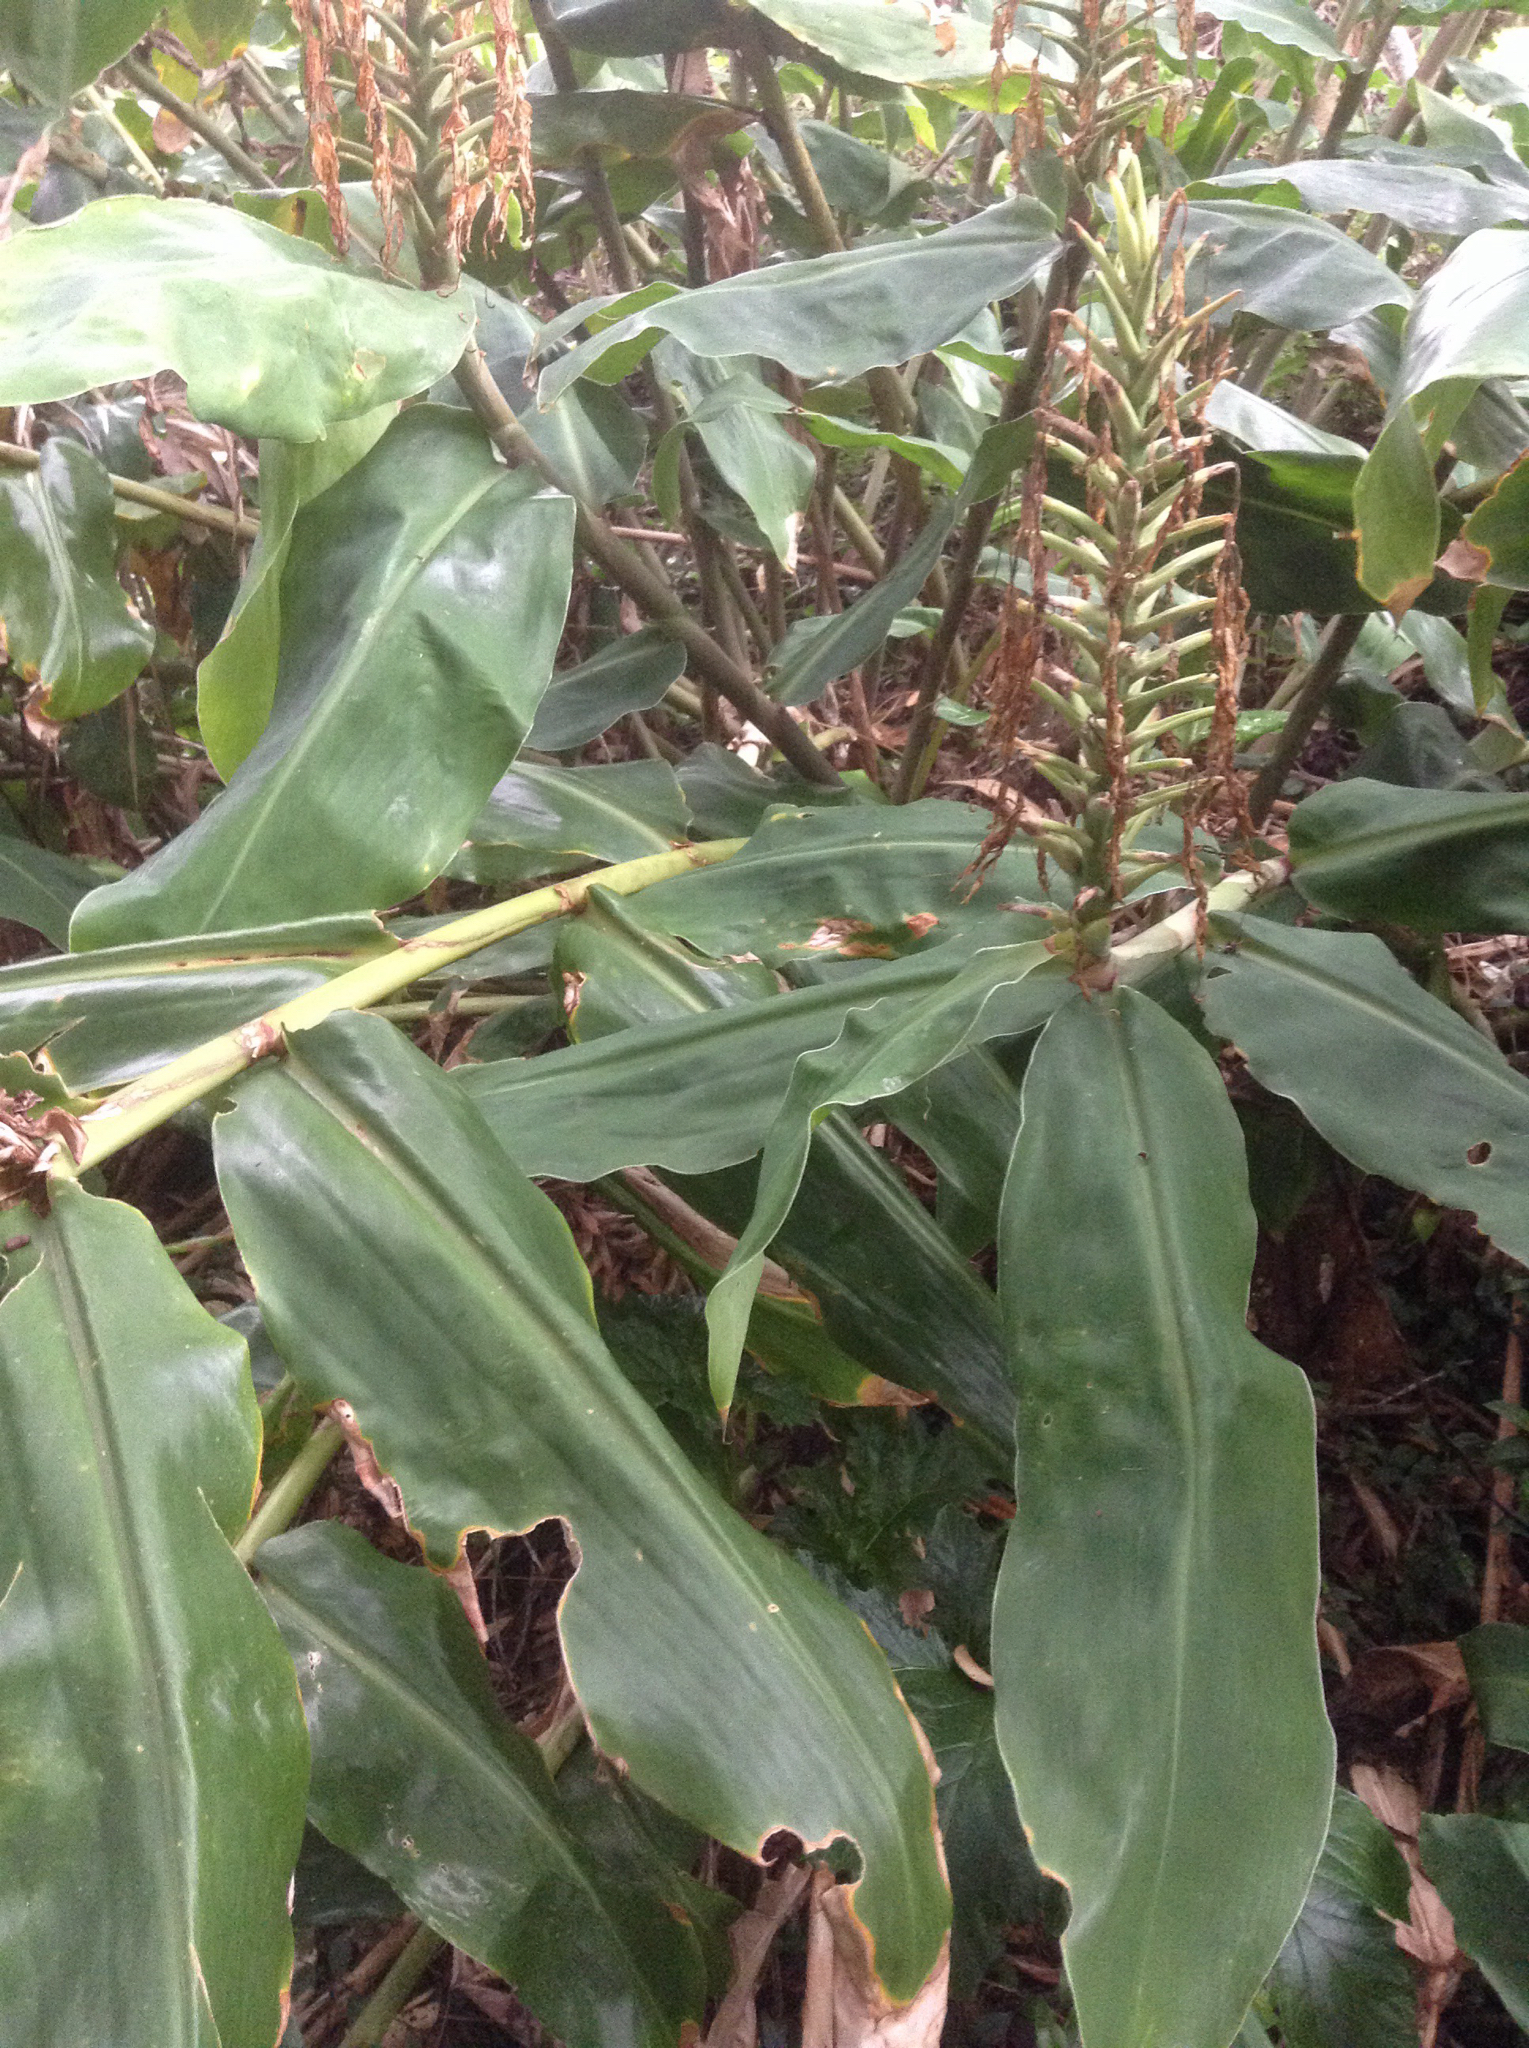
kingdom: Plantae
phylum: Tracheophyta
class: Liliopsida
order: Zingiberales
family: Zingiberaceae
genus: Hedychium
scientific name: Hedychium gardnerianum
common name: Himalayan ginger
